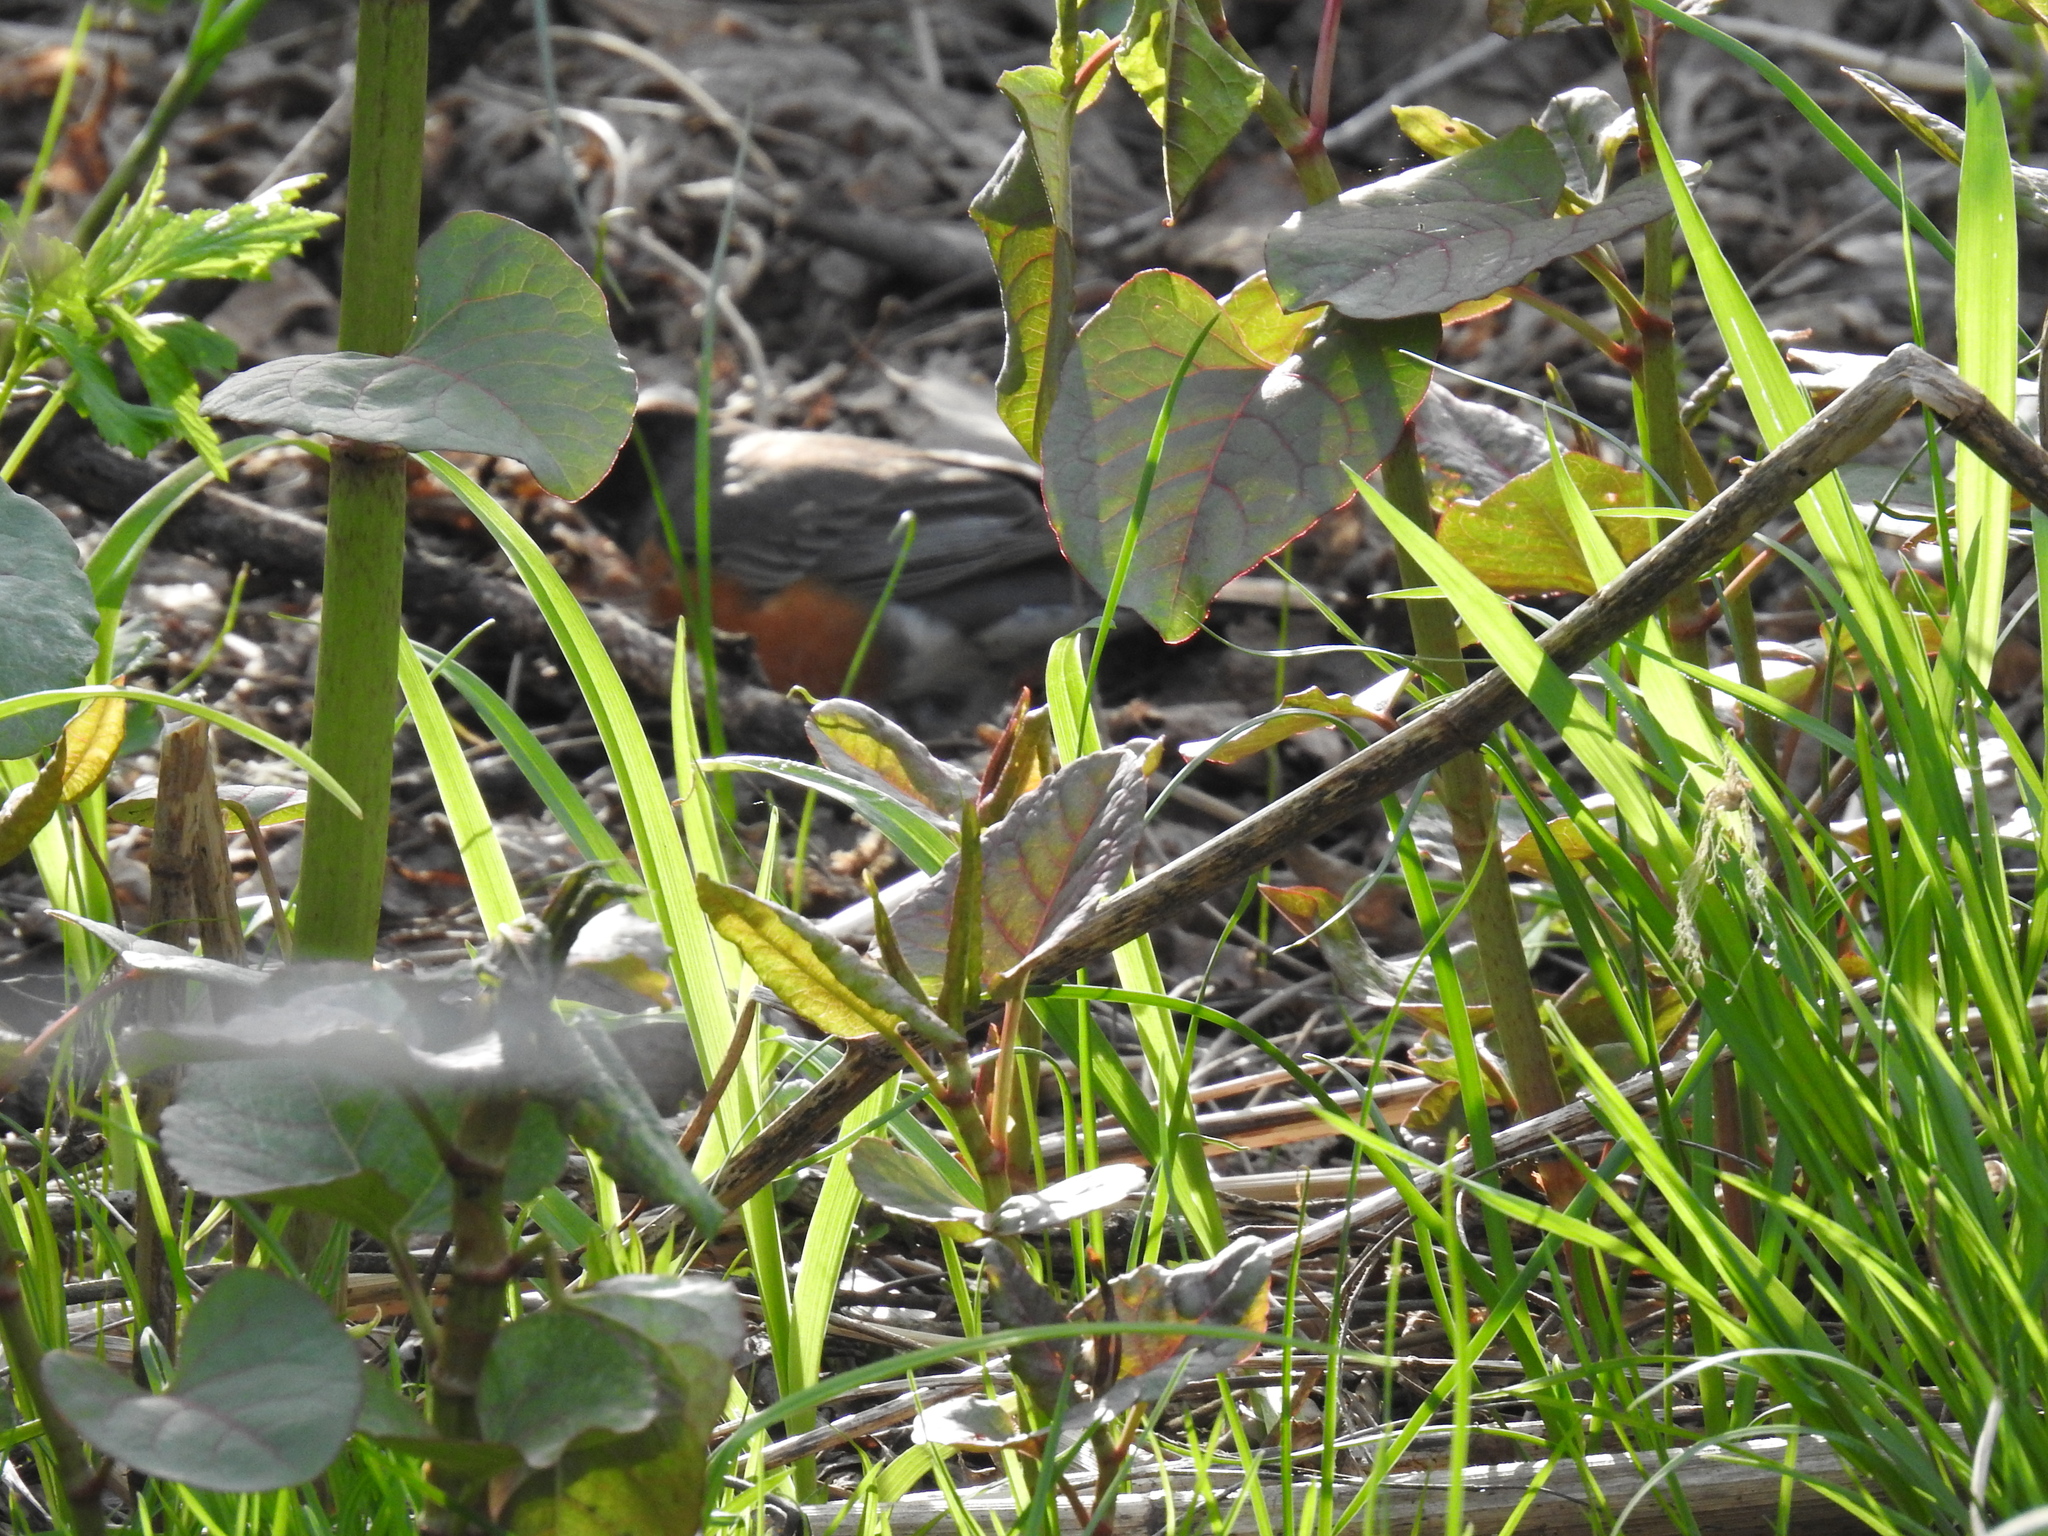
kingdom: Animalia
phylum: Chordata
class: Aves
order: Passeriformes
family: Turdidae
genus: Turdus
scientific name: Turdus migratorius
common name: American robin
